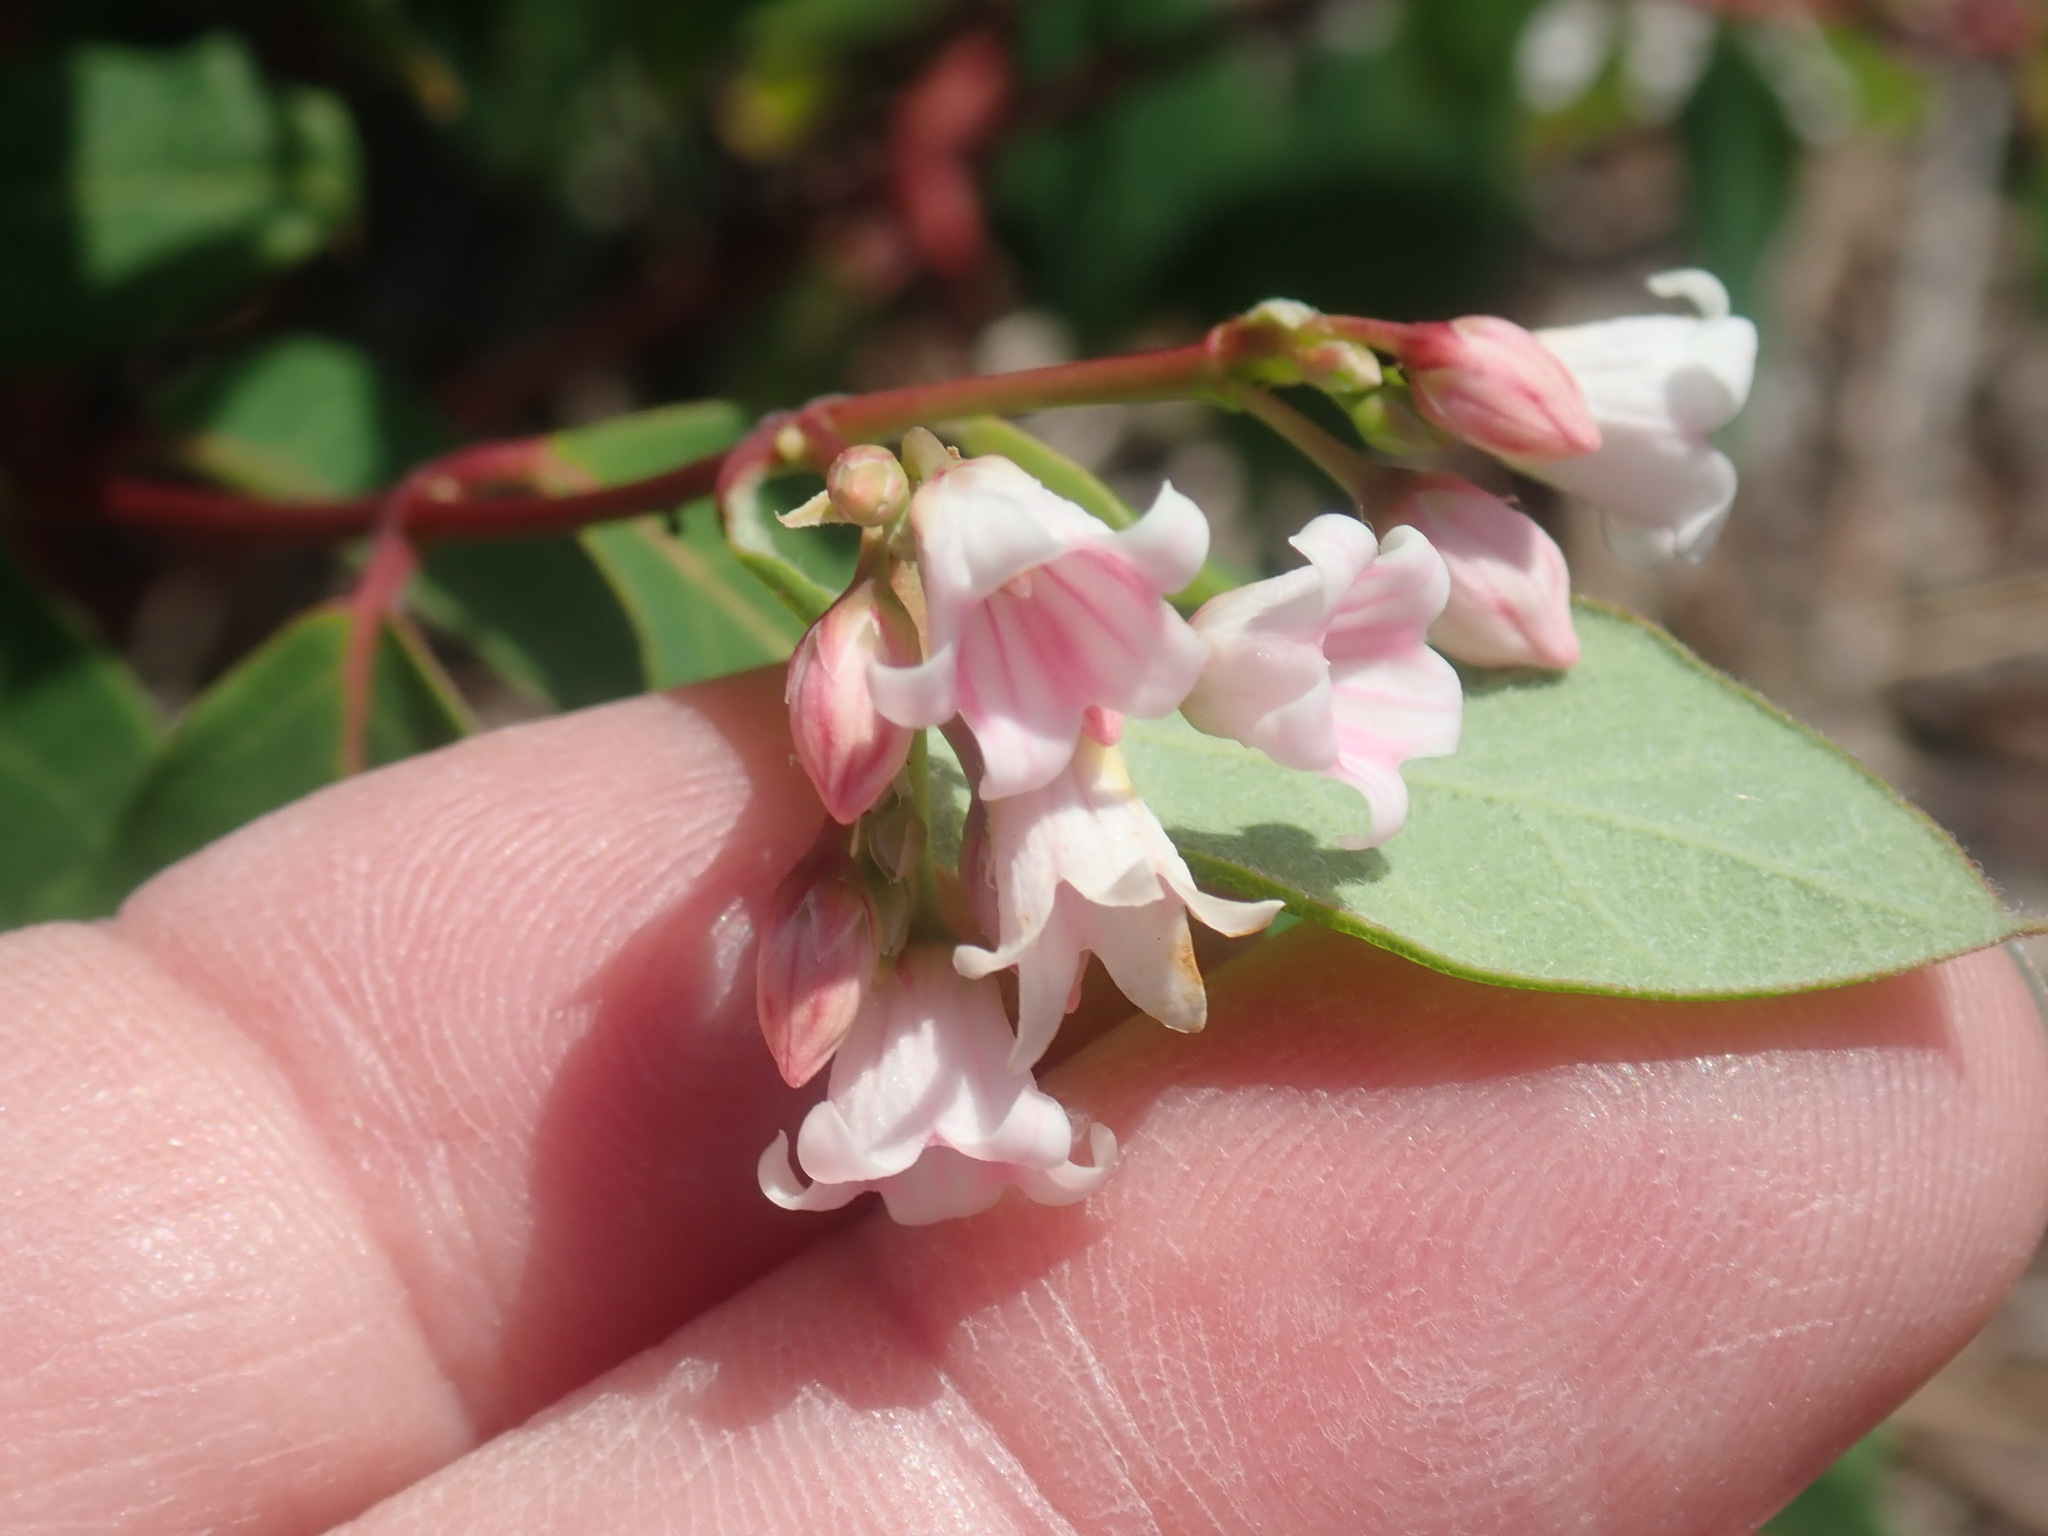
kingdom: Plantae
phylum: Tracheophyta
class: Magnoliopsida
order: Gentianales
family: Apocynaceae
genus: Apocynum
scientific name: Apocynum androsaemifolium
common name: Spreading dogbane
